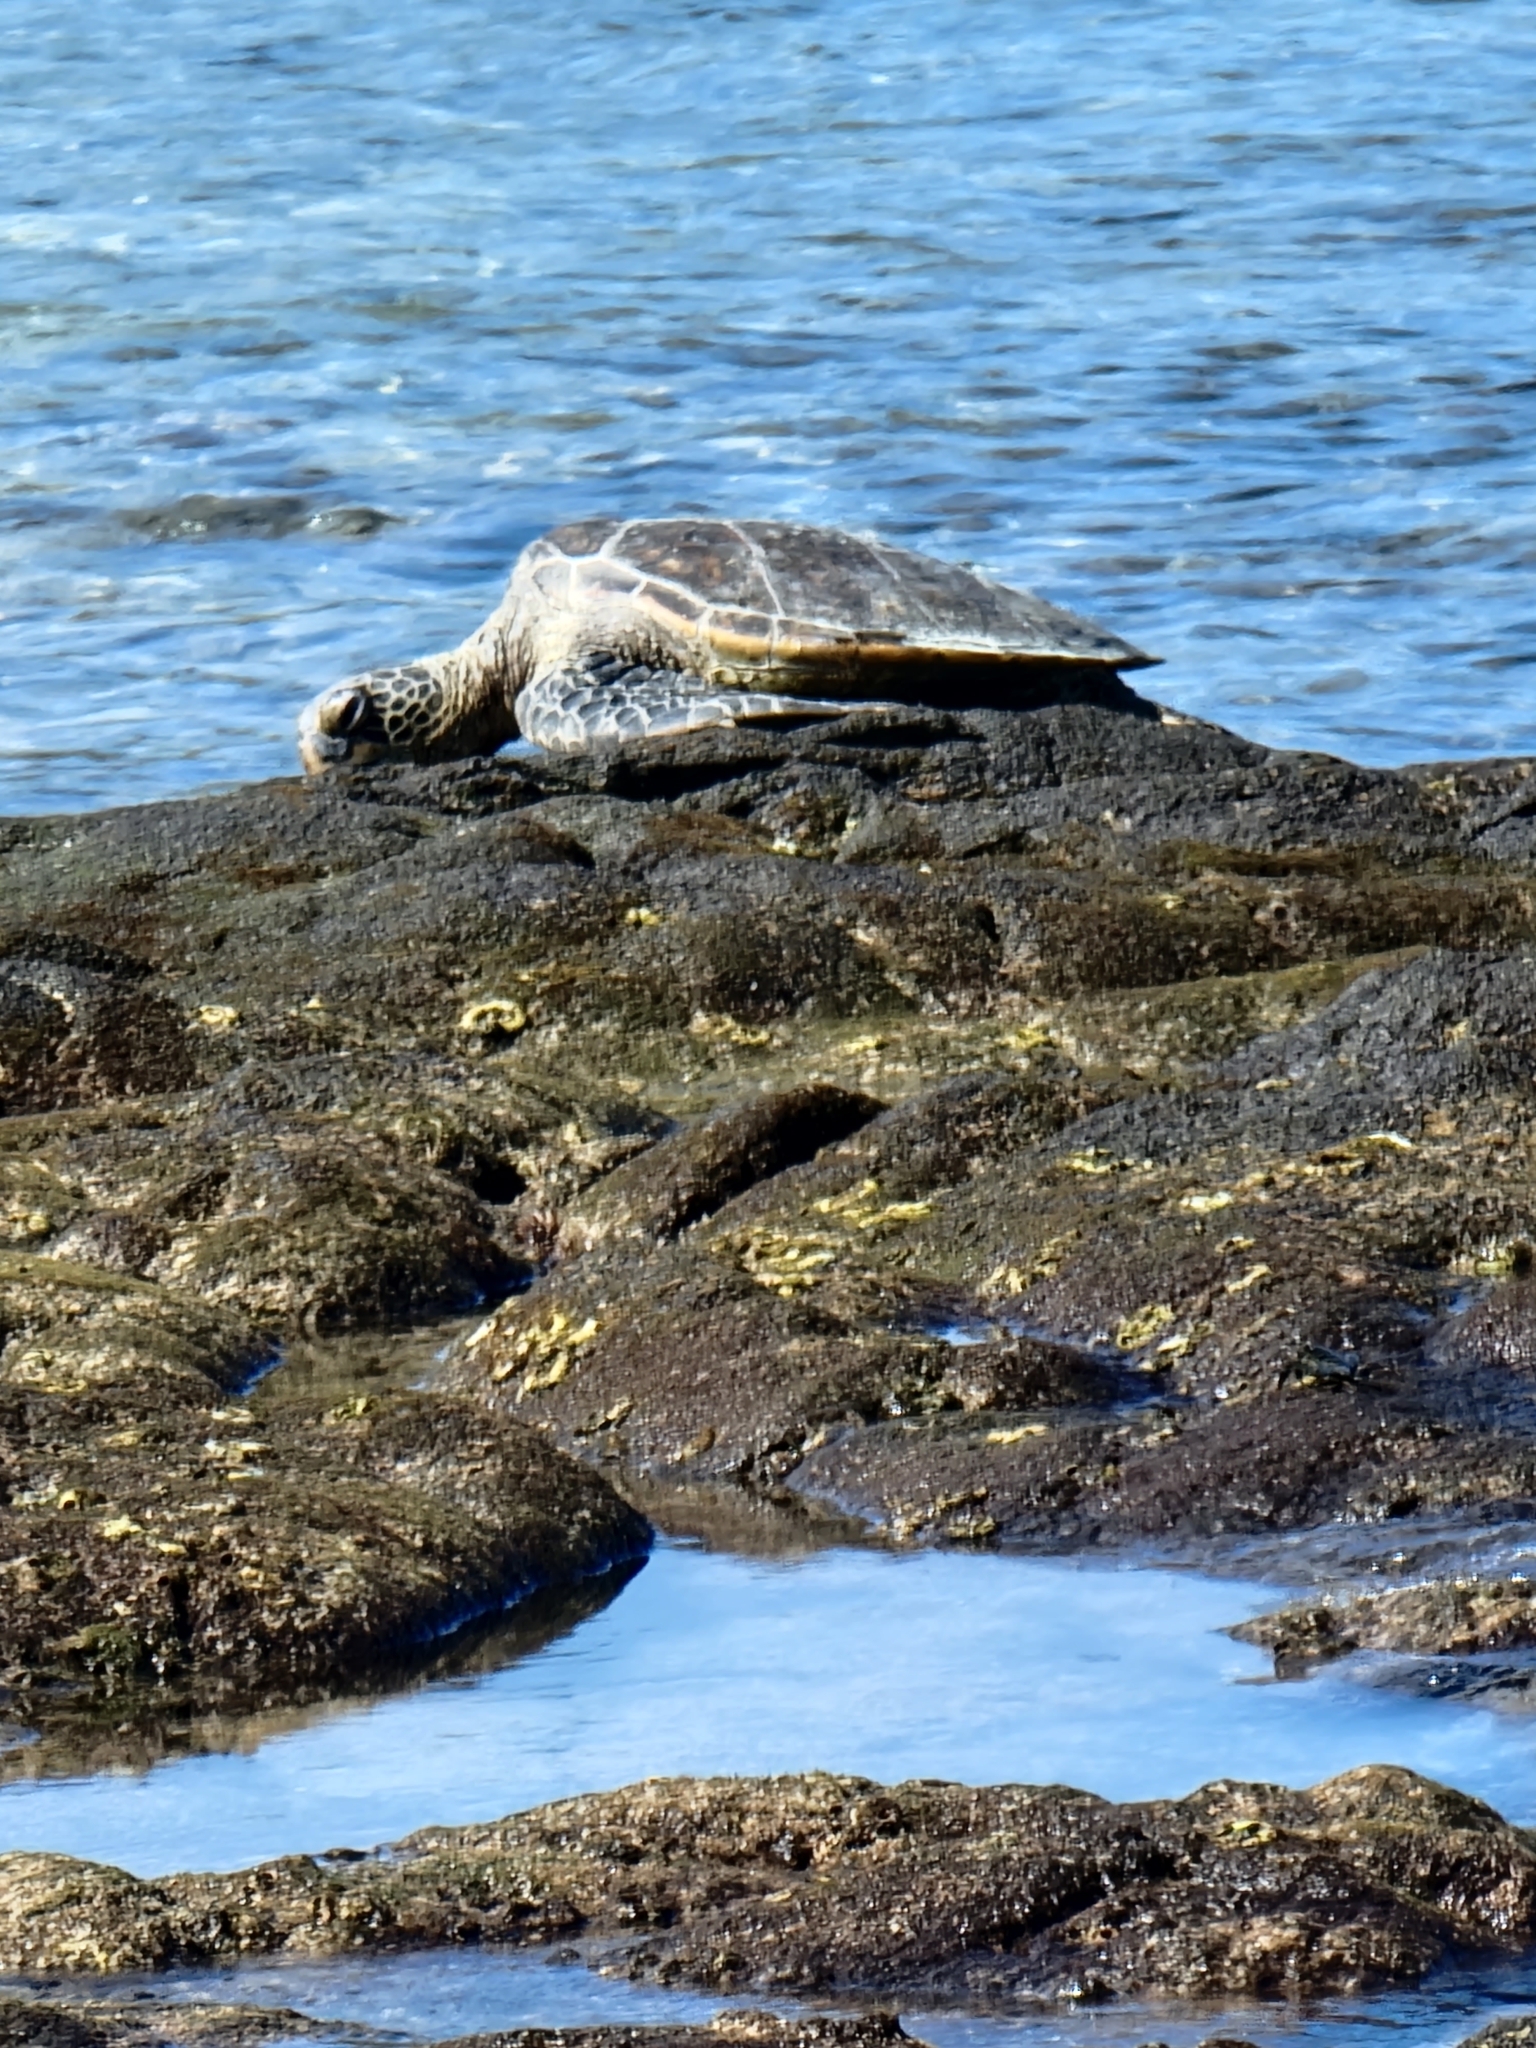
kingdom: Animalia
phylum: Chordata
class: Testudines
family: Cheloniidae
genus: Chelonia
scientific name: Chelonia mydas
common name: Green turtle
